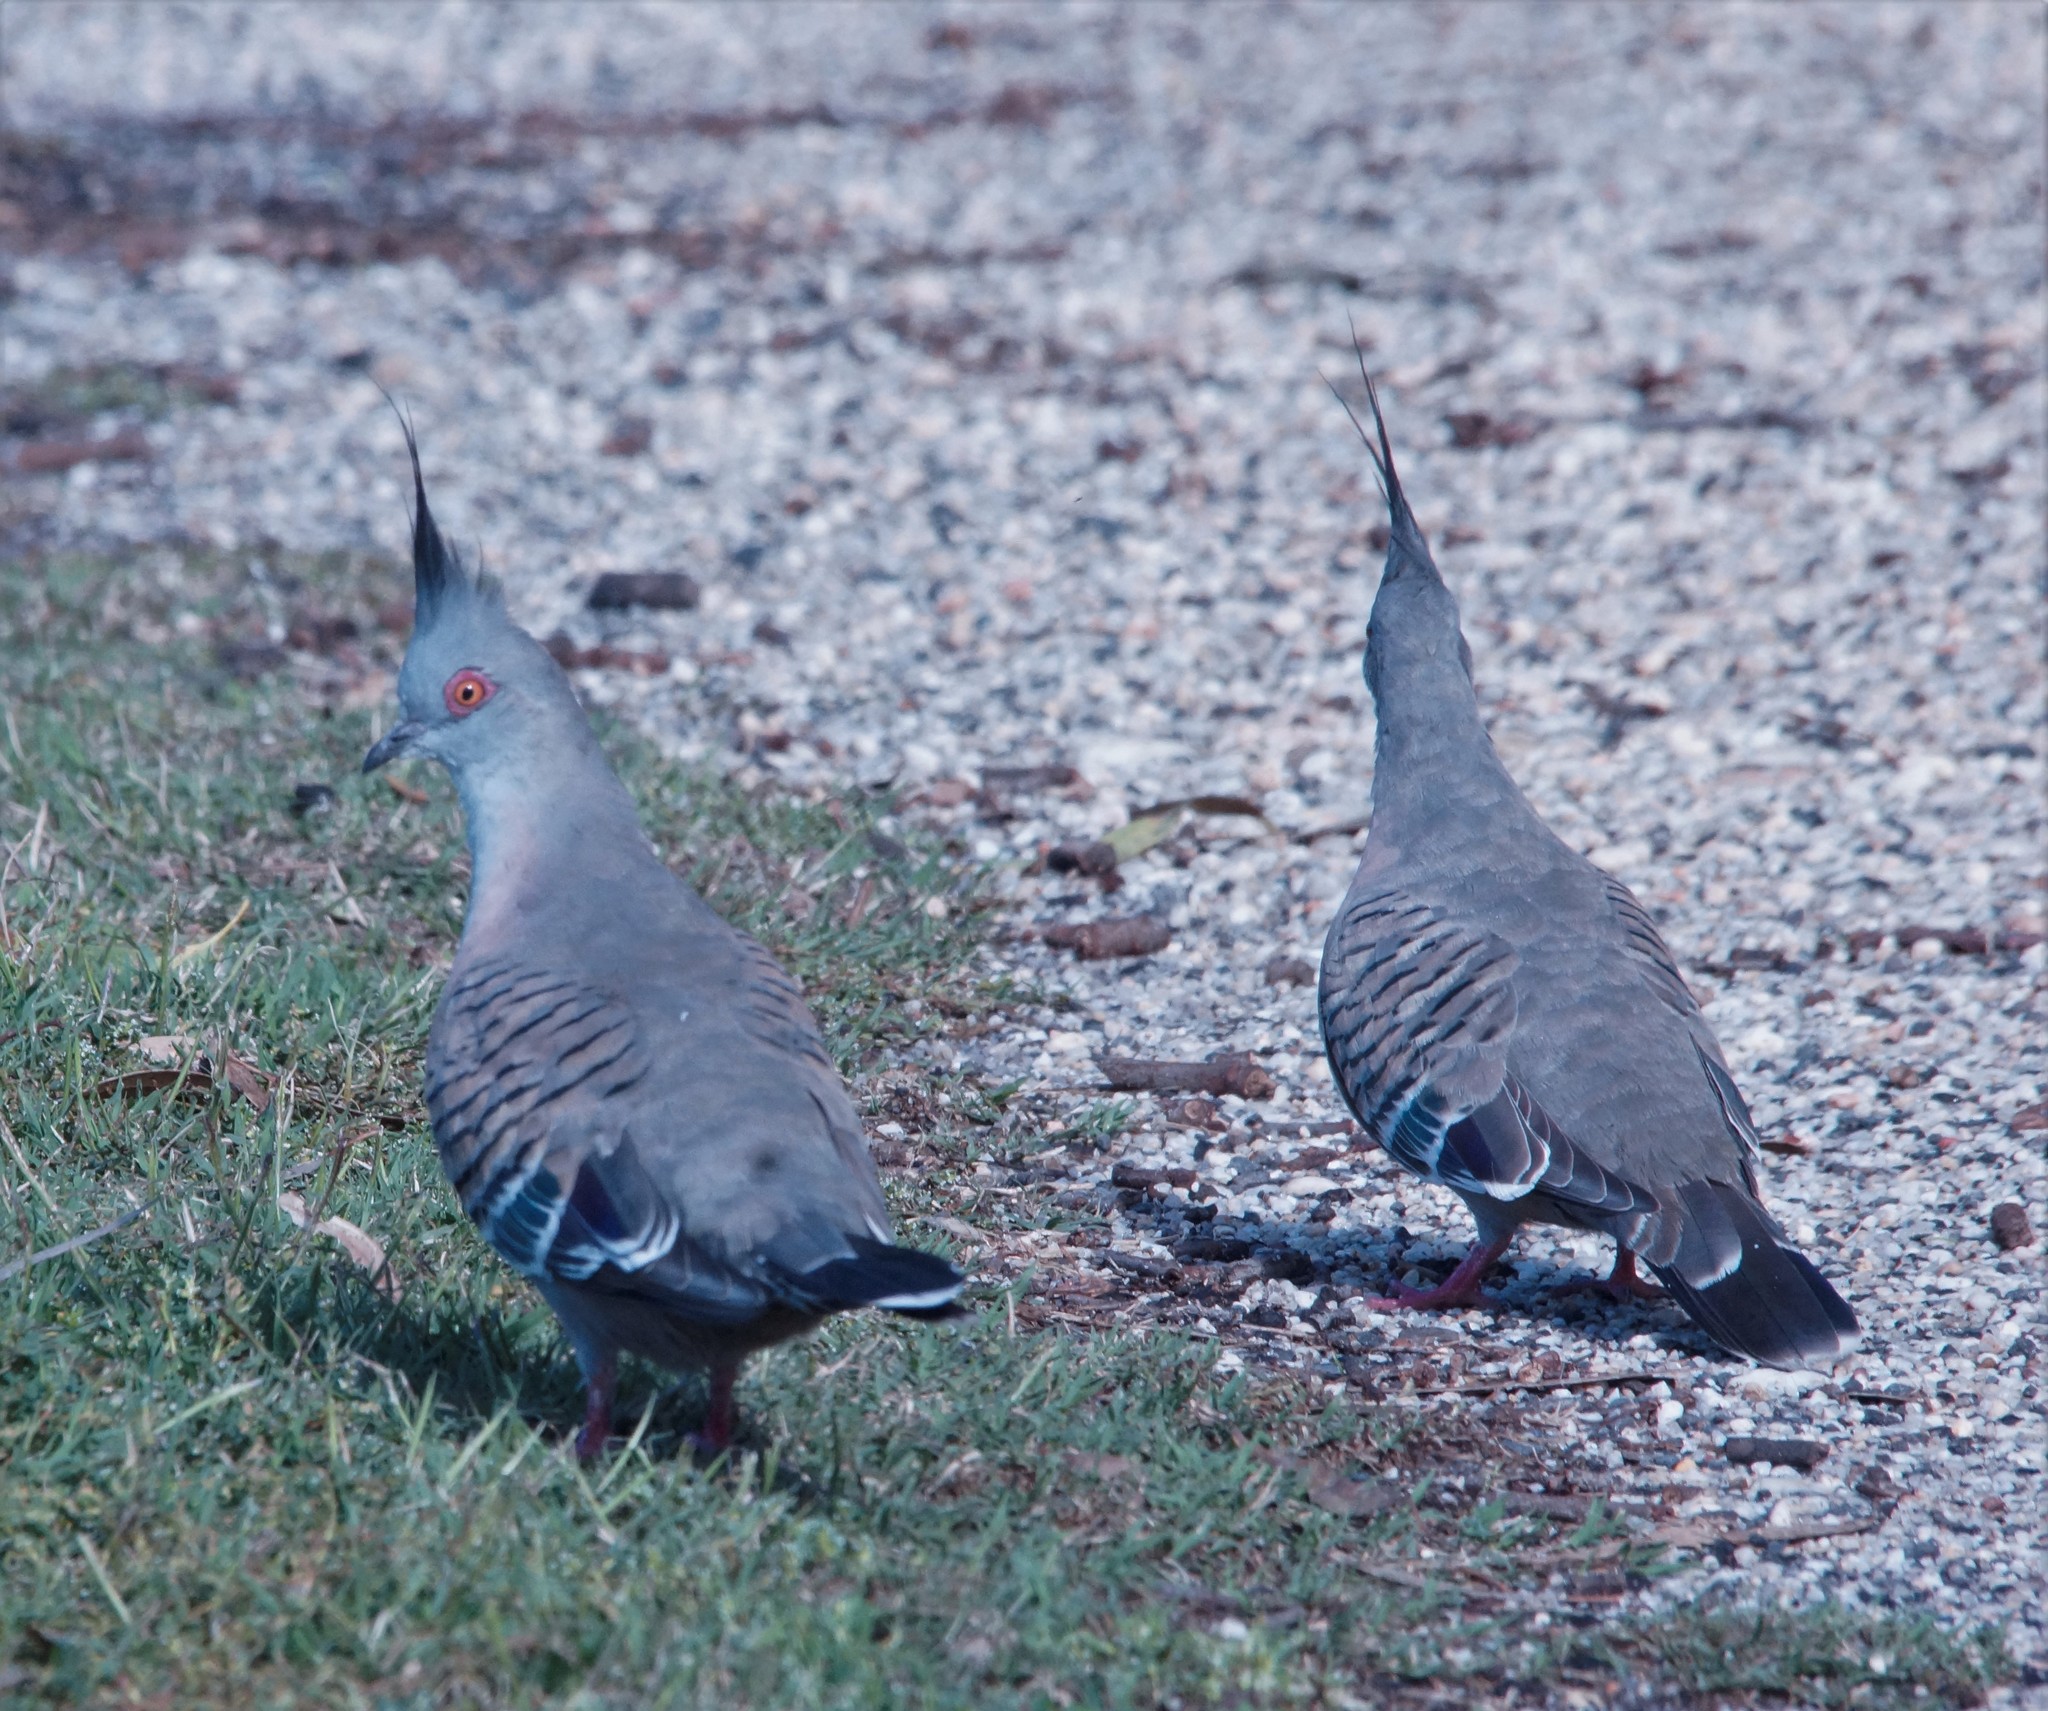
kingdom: Animalia
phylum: Chordata
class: Aves
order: Columbiformes
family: Columbidae
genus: Ocyphaps
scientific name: Ocyphaps lophotes
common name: Crested pigeon
